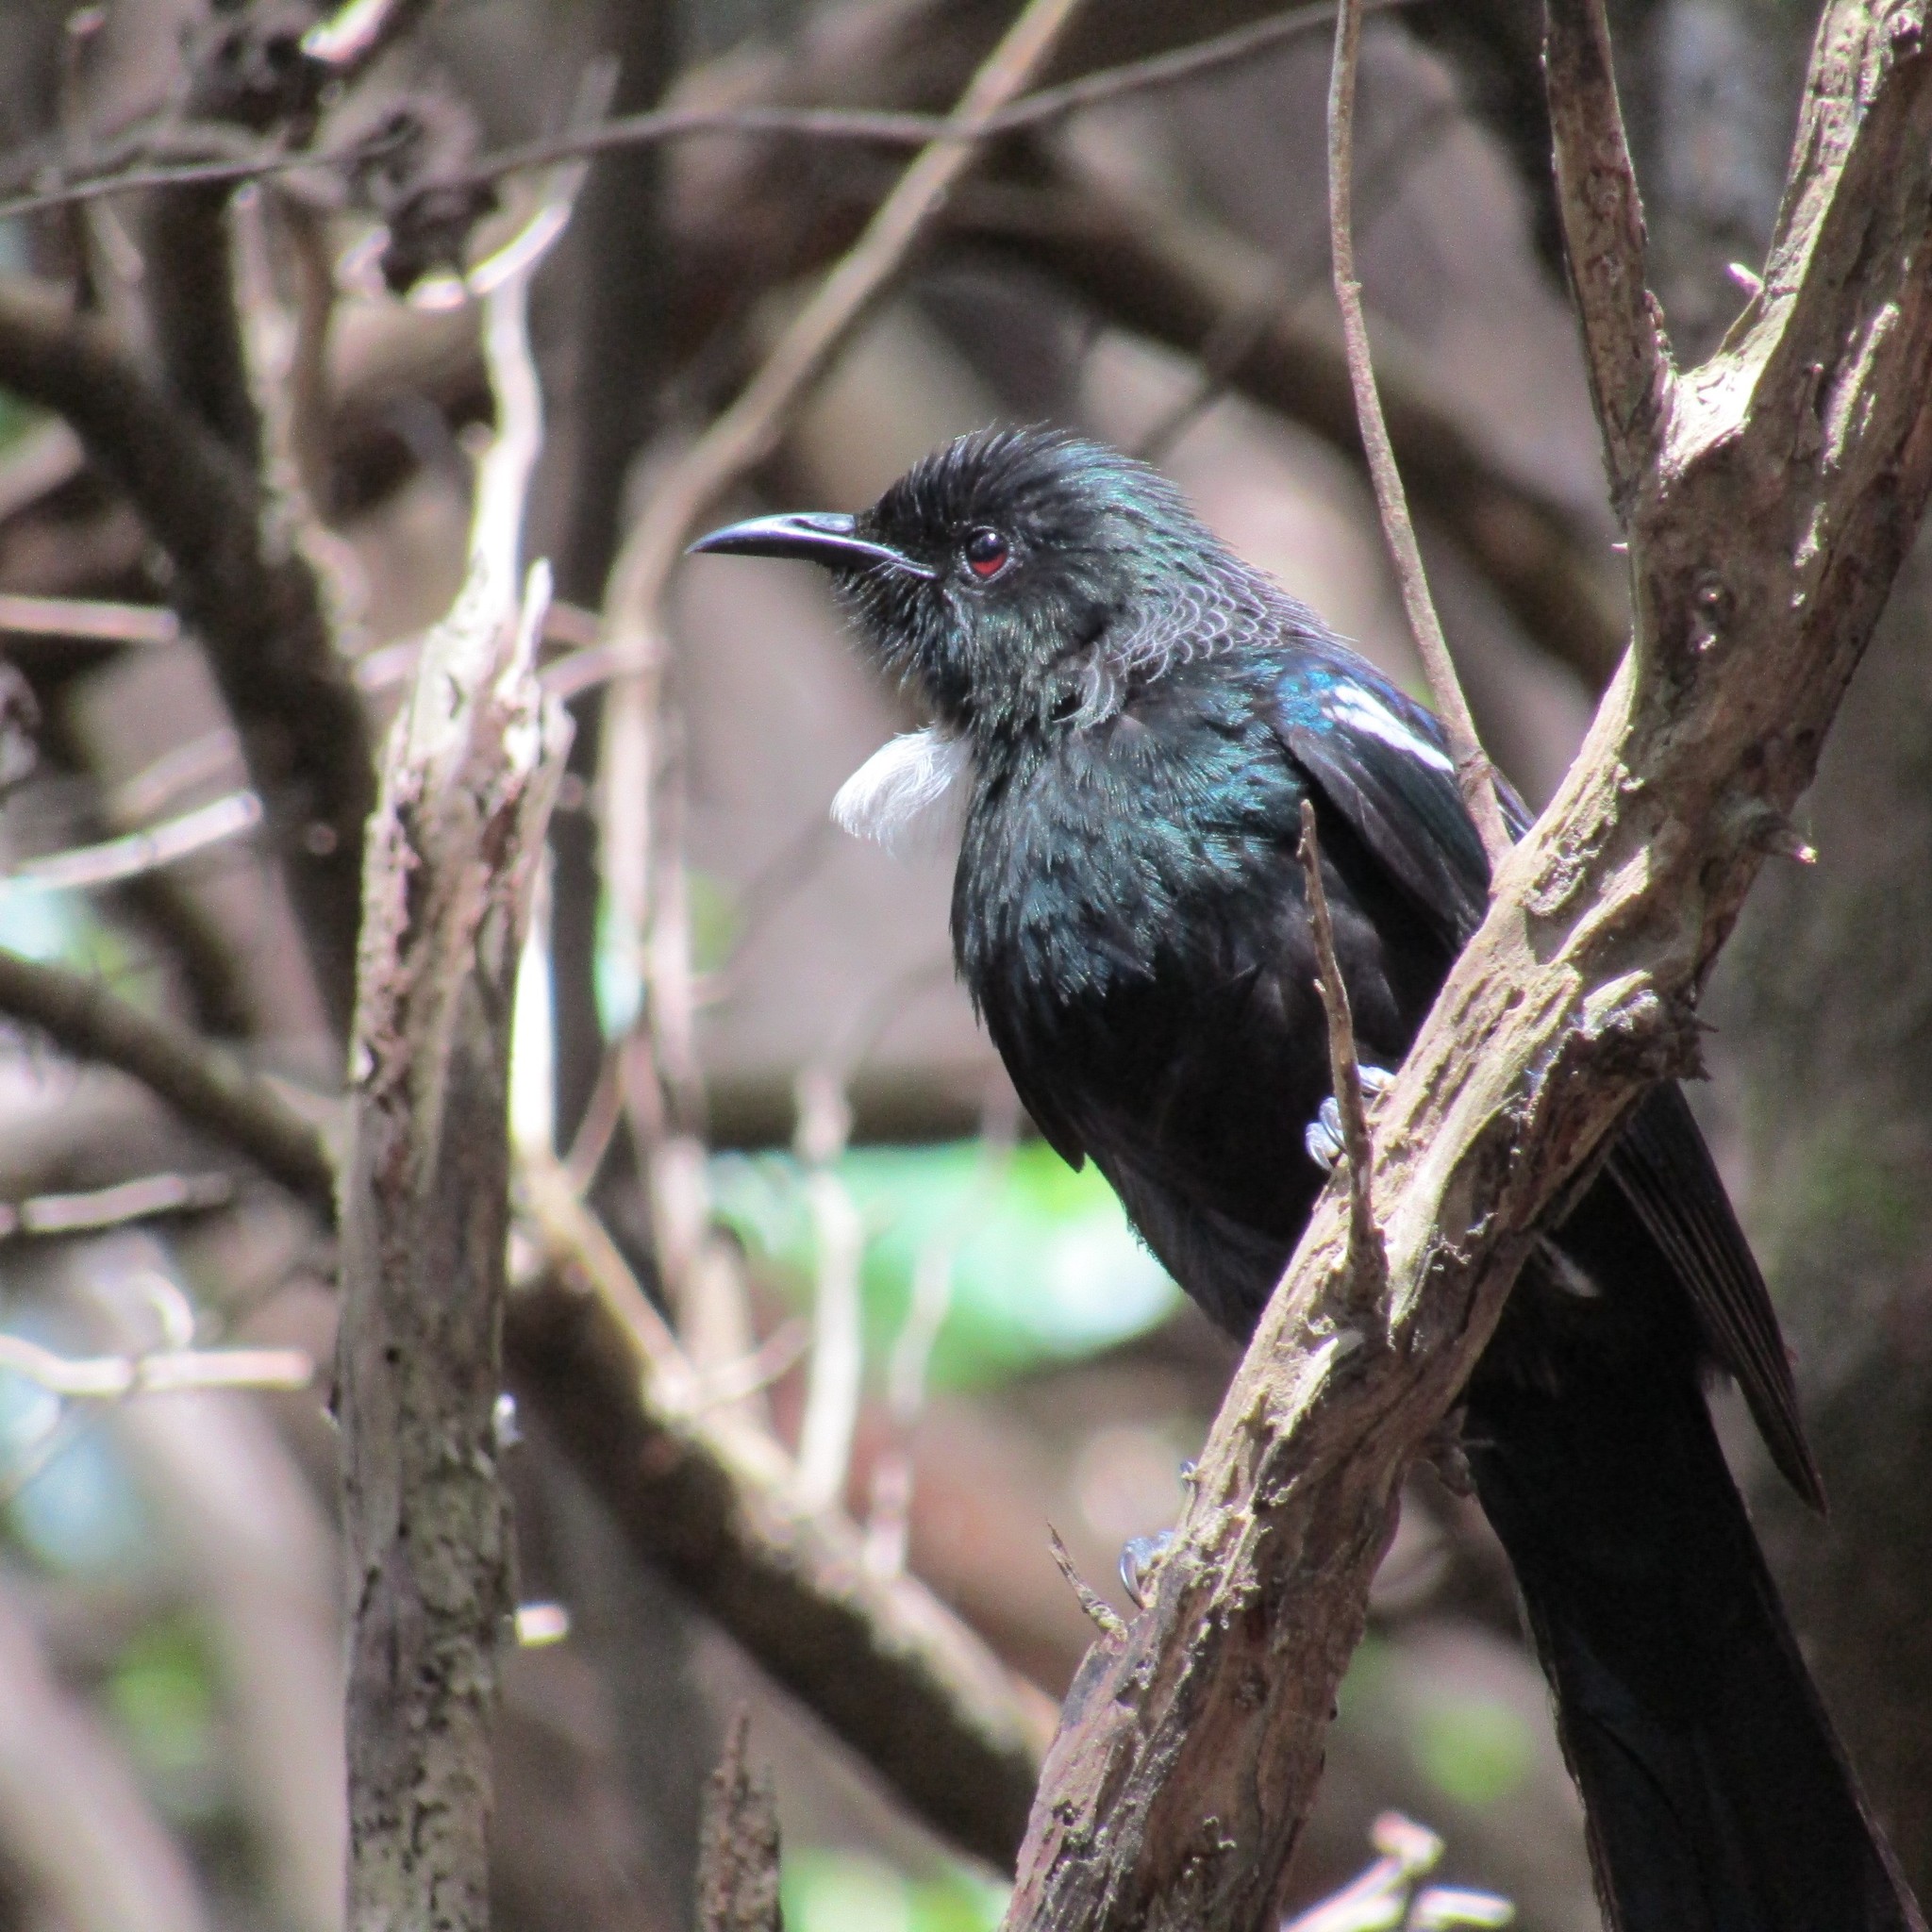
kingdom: Animalia
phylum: Chordata
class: Aves
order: Passeriformes
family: Meliphagidae
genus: Prosthemadera
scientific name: Prosthemadera novaeseelandiae
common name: Tui
